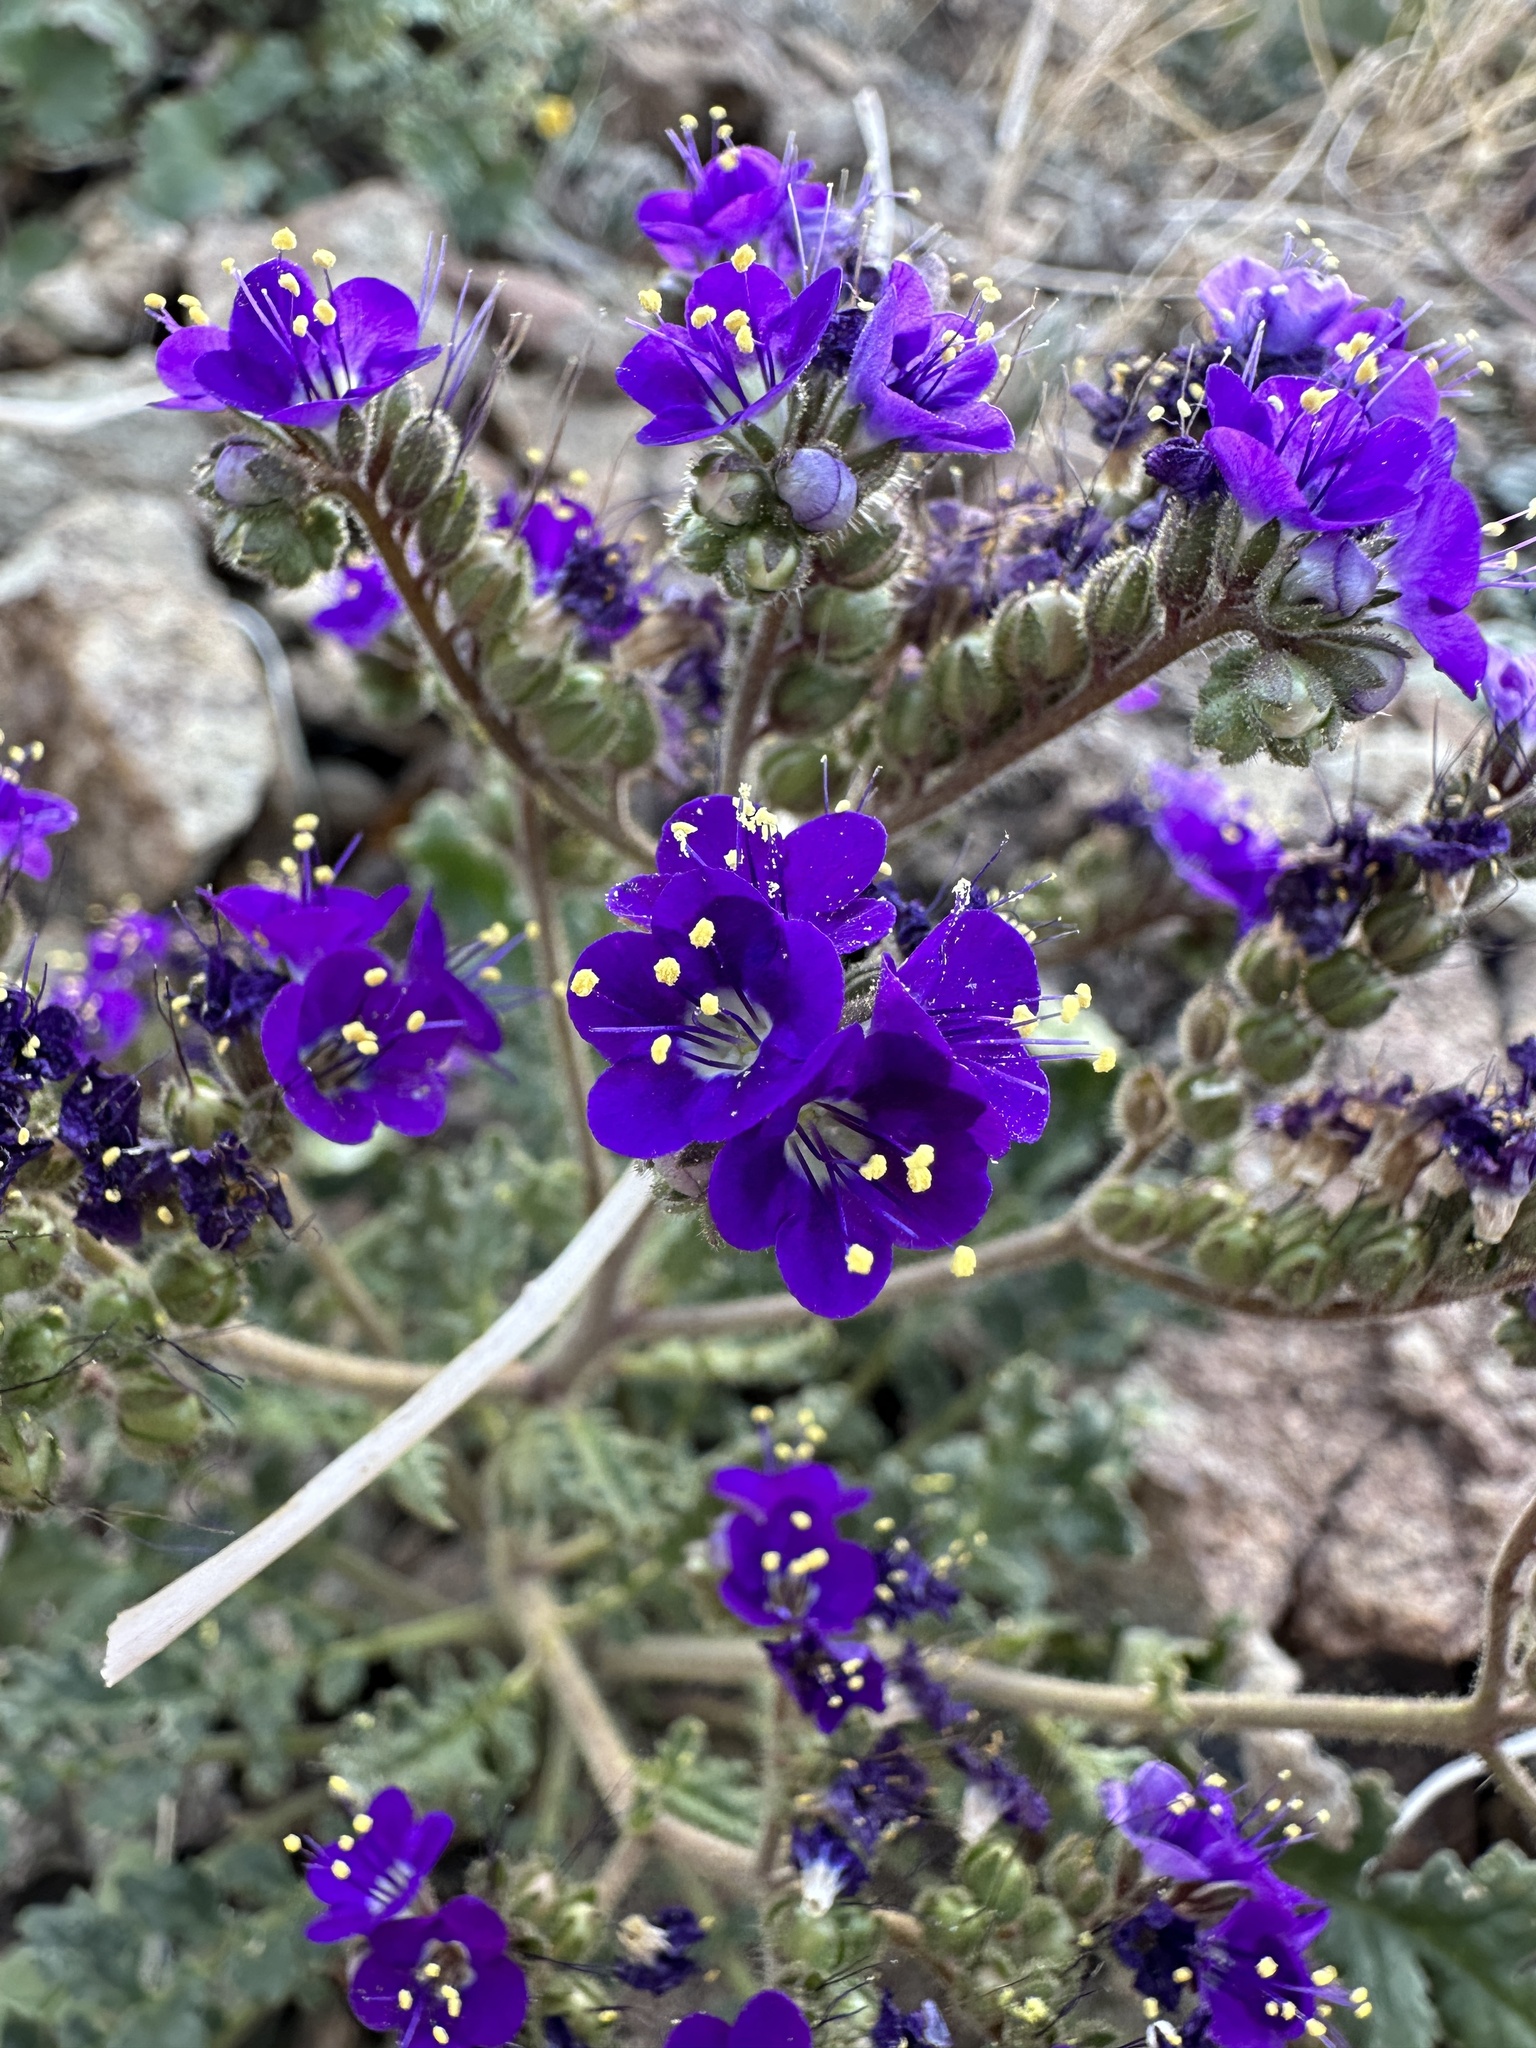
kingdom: Plantae
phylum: Tracheophyta
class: Magnoliopsida
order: Boraginales
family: Hydrophyllaceae
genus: Phacelia
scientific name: Phacelia crenulata
